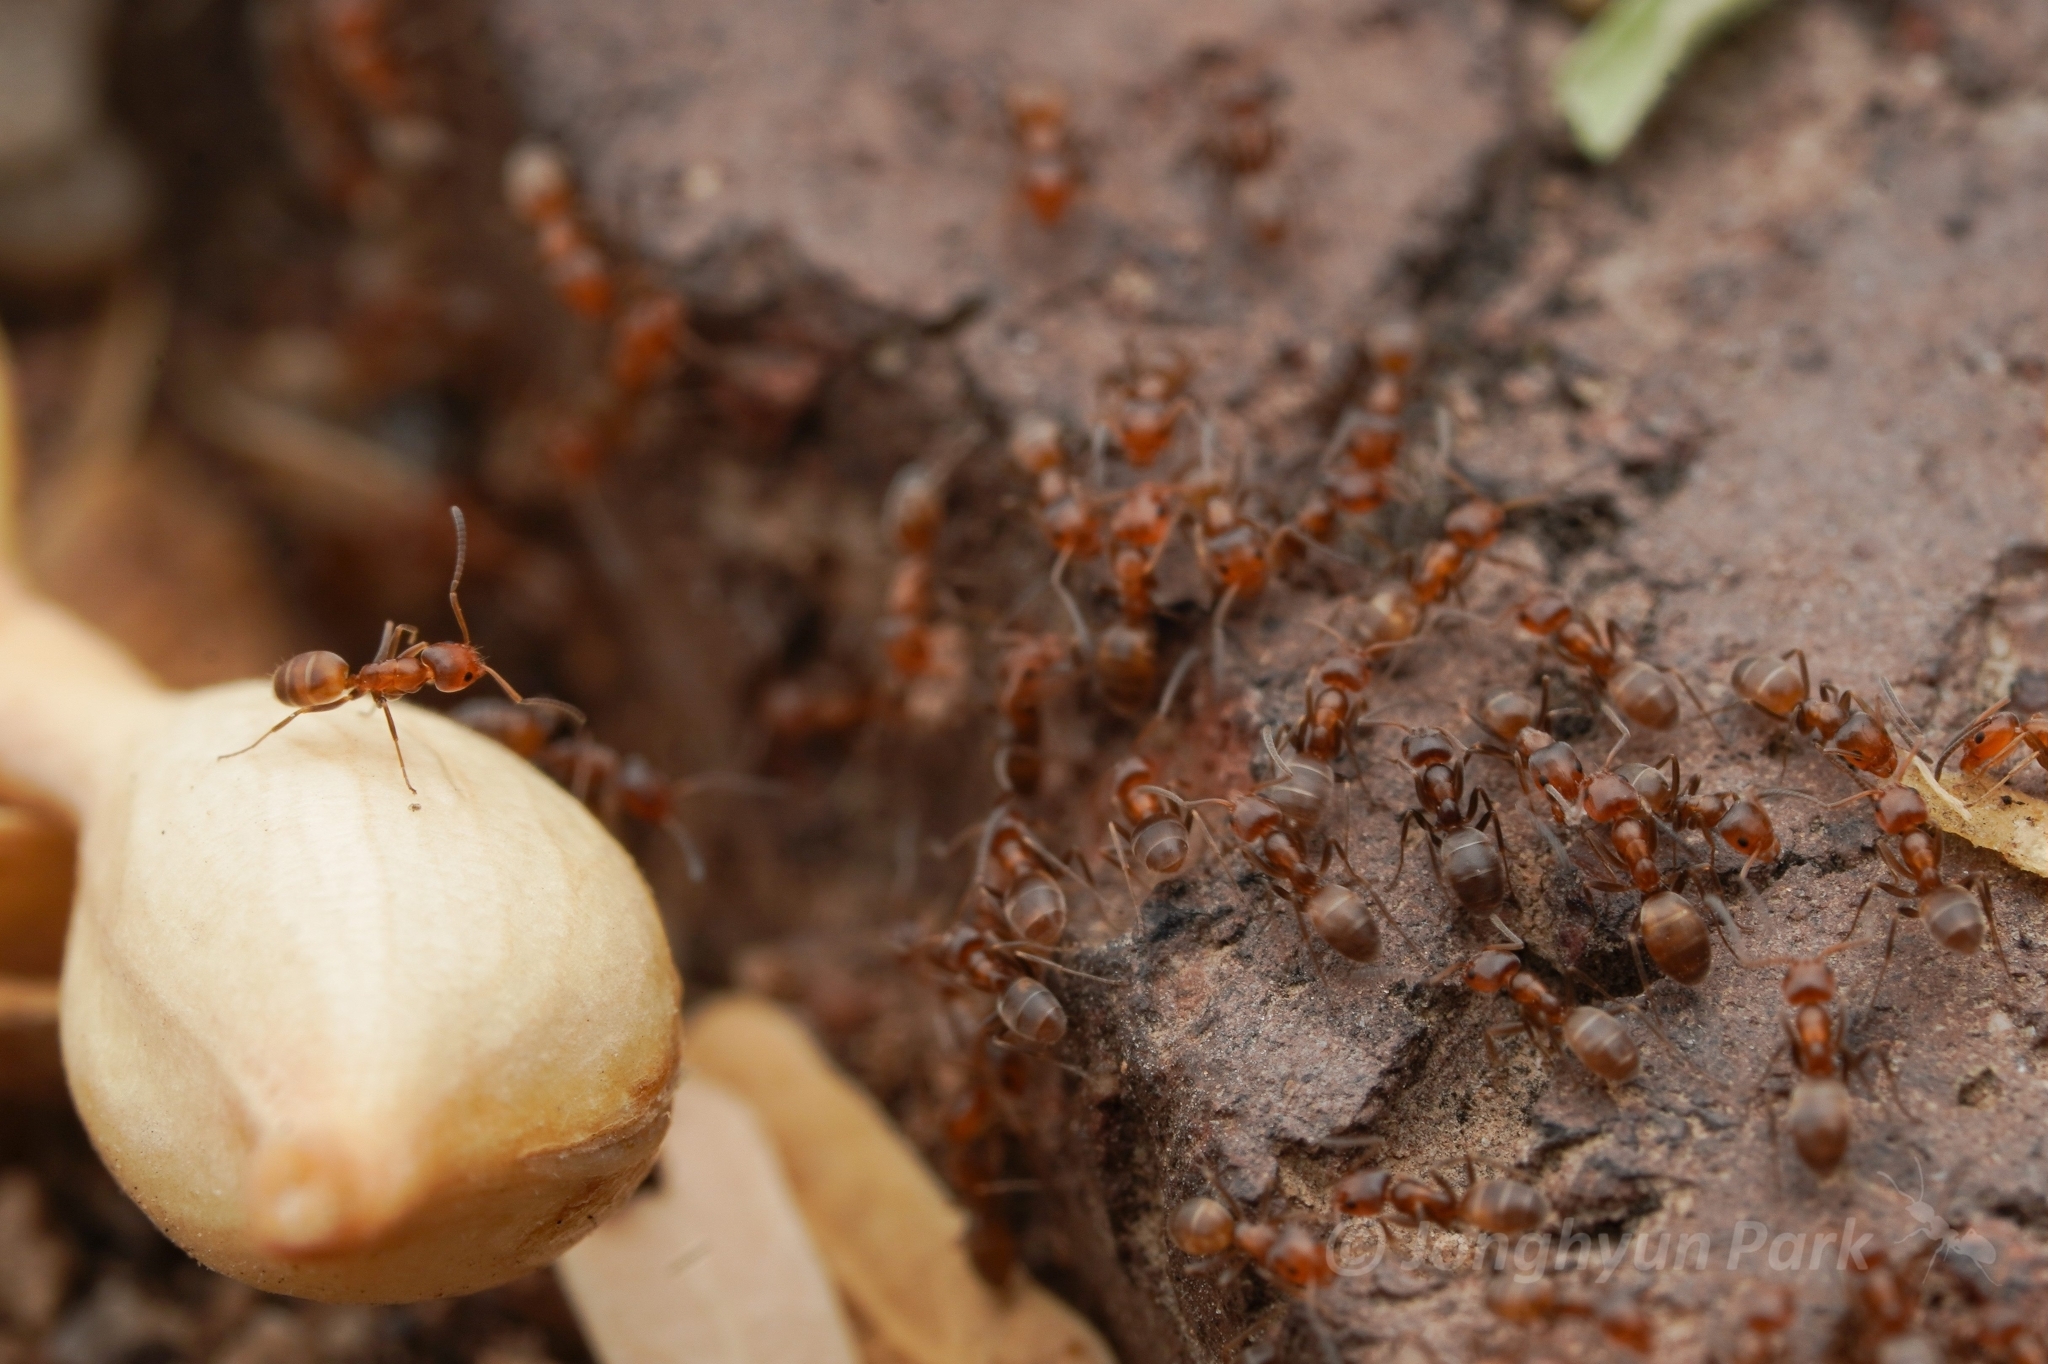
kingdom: Animalia
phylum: Arthropoda
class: Insecta
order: Hymenoptera
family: Formicidae
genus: Forelius
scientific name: Forelius pruinosus
